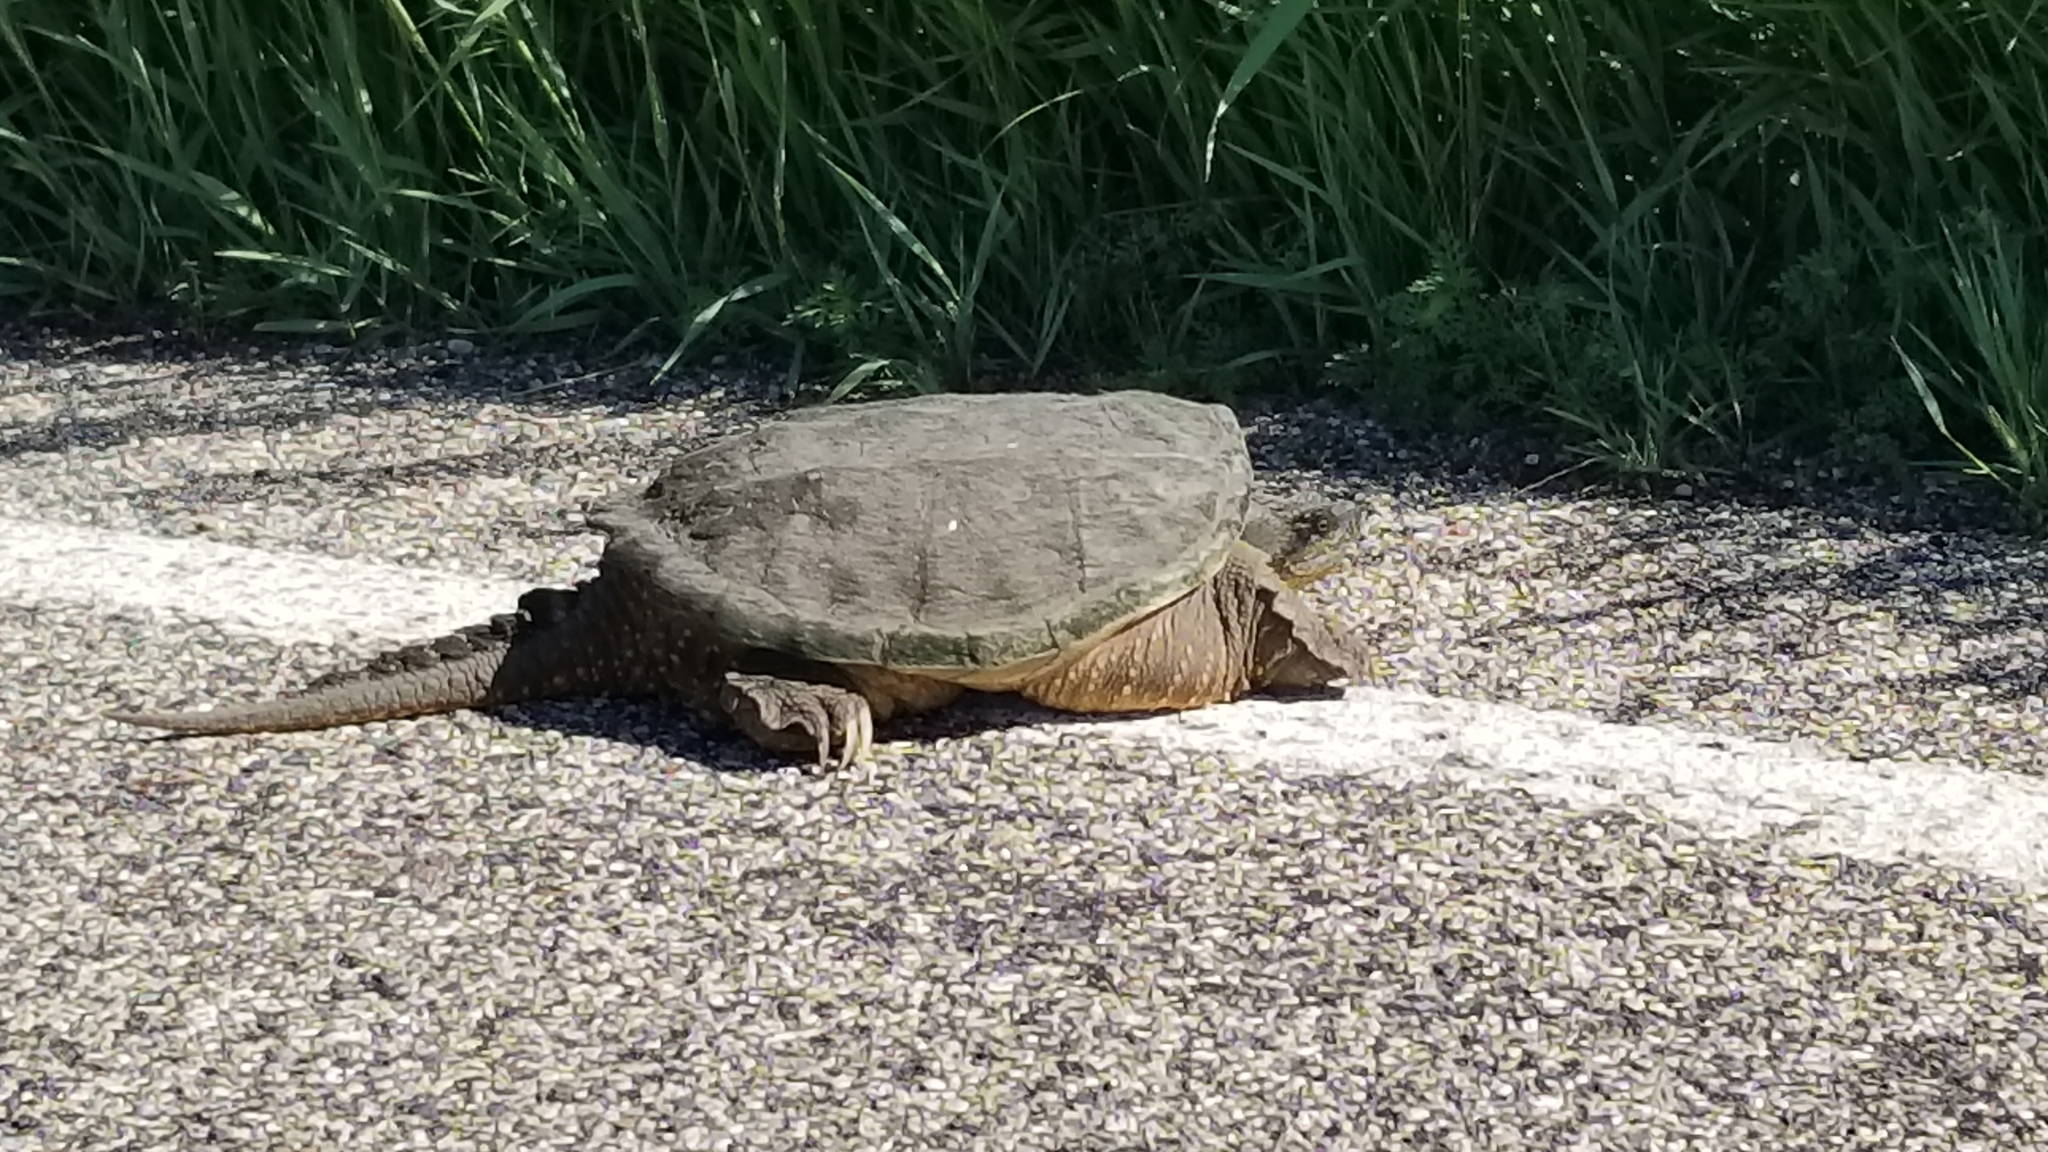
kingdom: Animalia
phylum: Chordata
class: Testudines
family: Chelydridae
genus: Chelydra
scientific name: Chelydra serpentina
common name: Common snapping turtle
